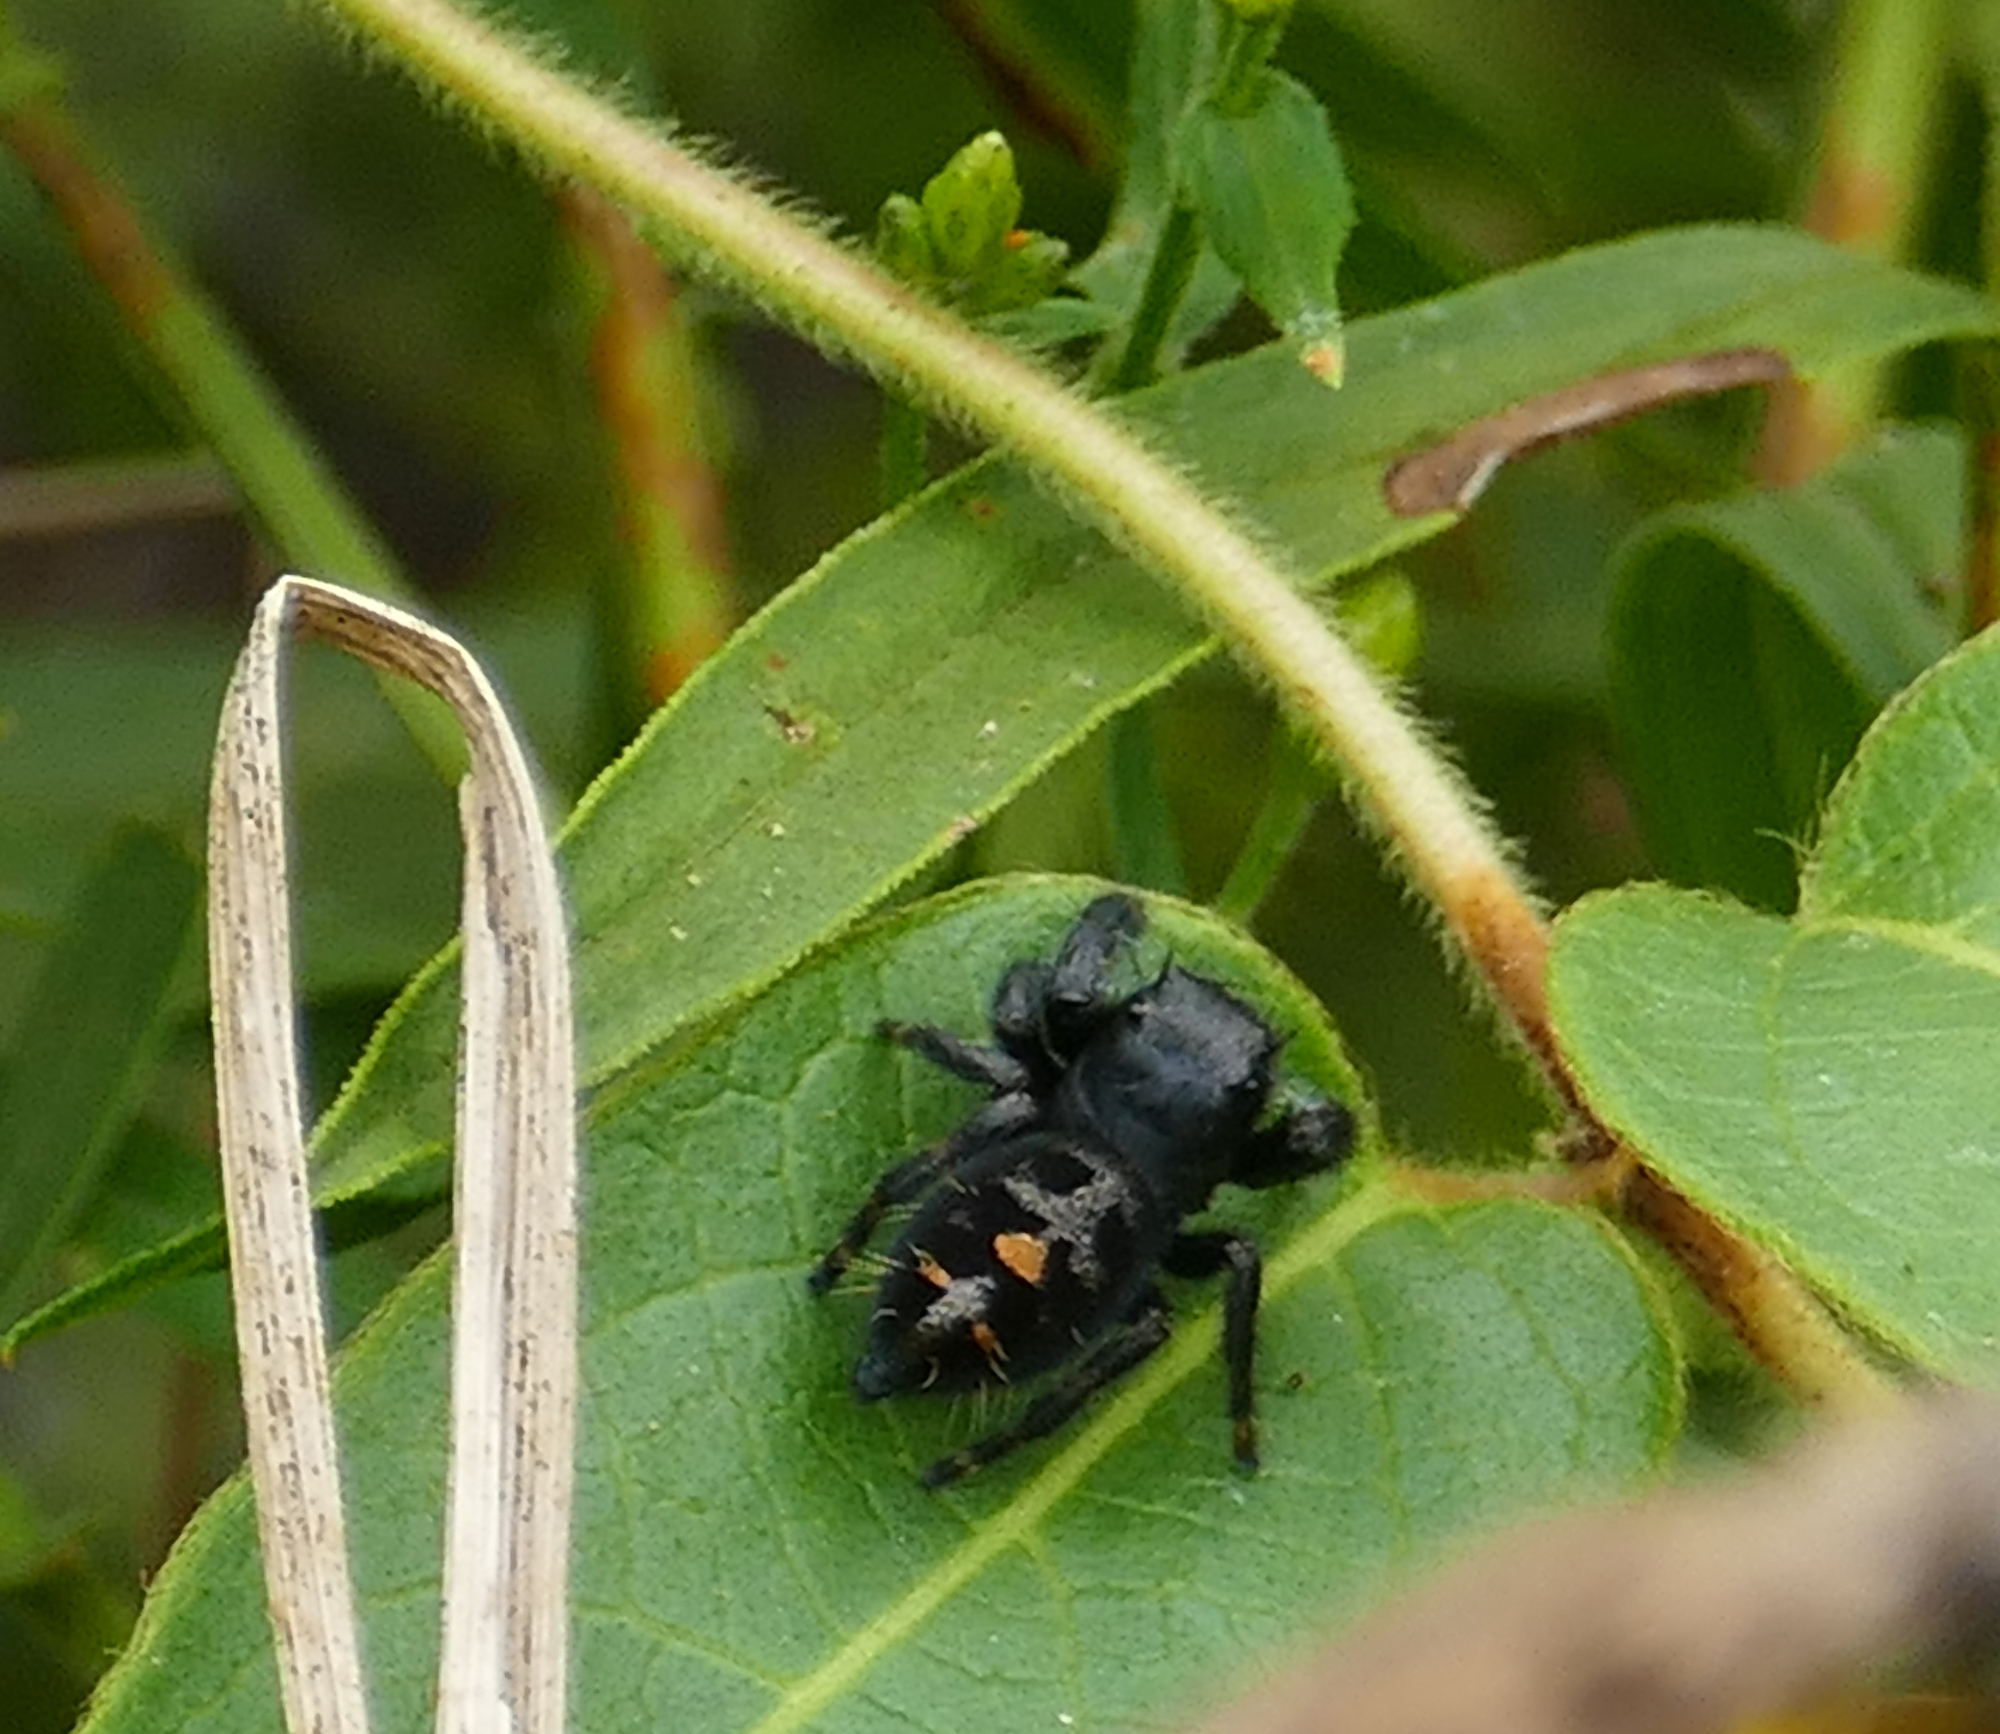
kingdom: Animalia
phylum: Arthropoda
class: Arachnida
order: Araneae
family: Salticidae
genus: Phidippus
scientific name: Phidippus audax
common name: Bold jumper
